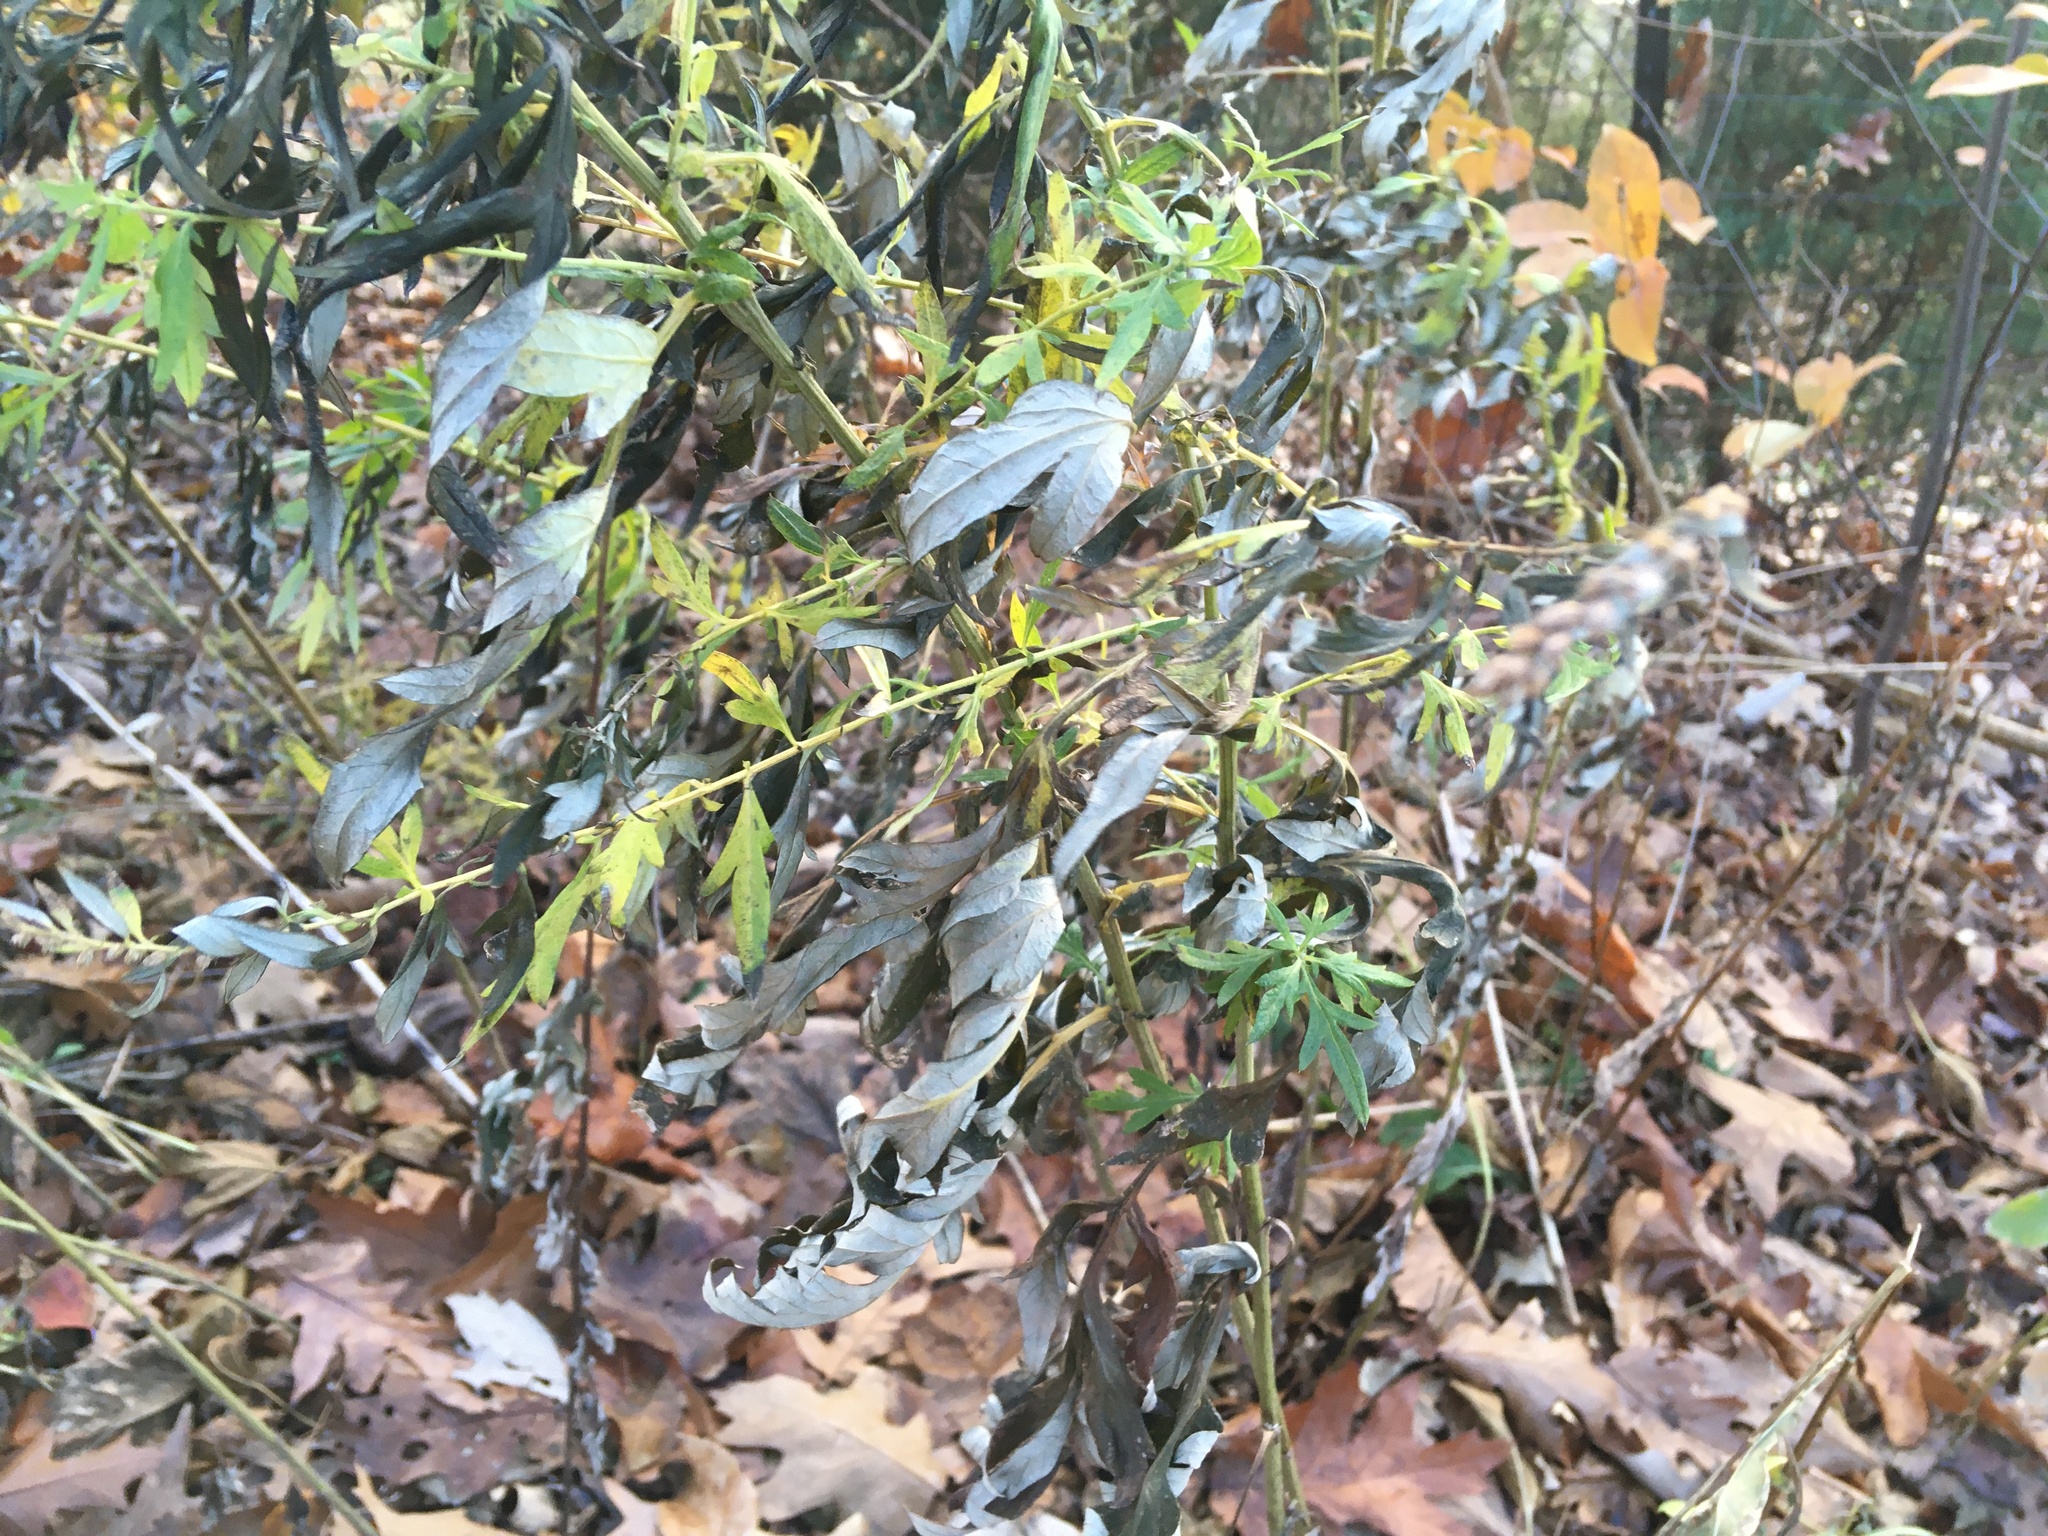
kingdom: Plantae
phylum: Tracheophyta
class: Magnoliopsida
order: Asterales
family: Asteraceae
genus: Artemisia
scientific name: Artemisia vulgaris
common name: Mugwort
